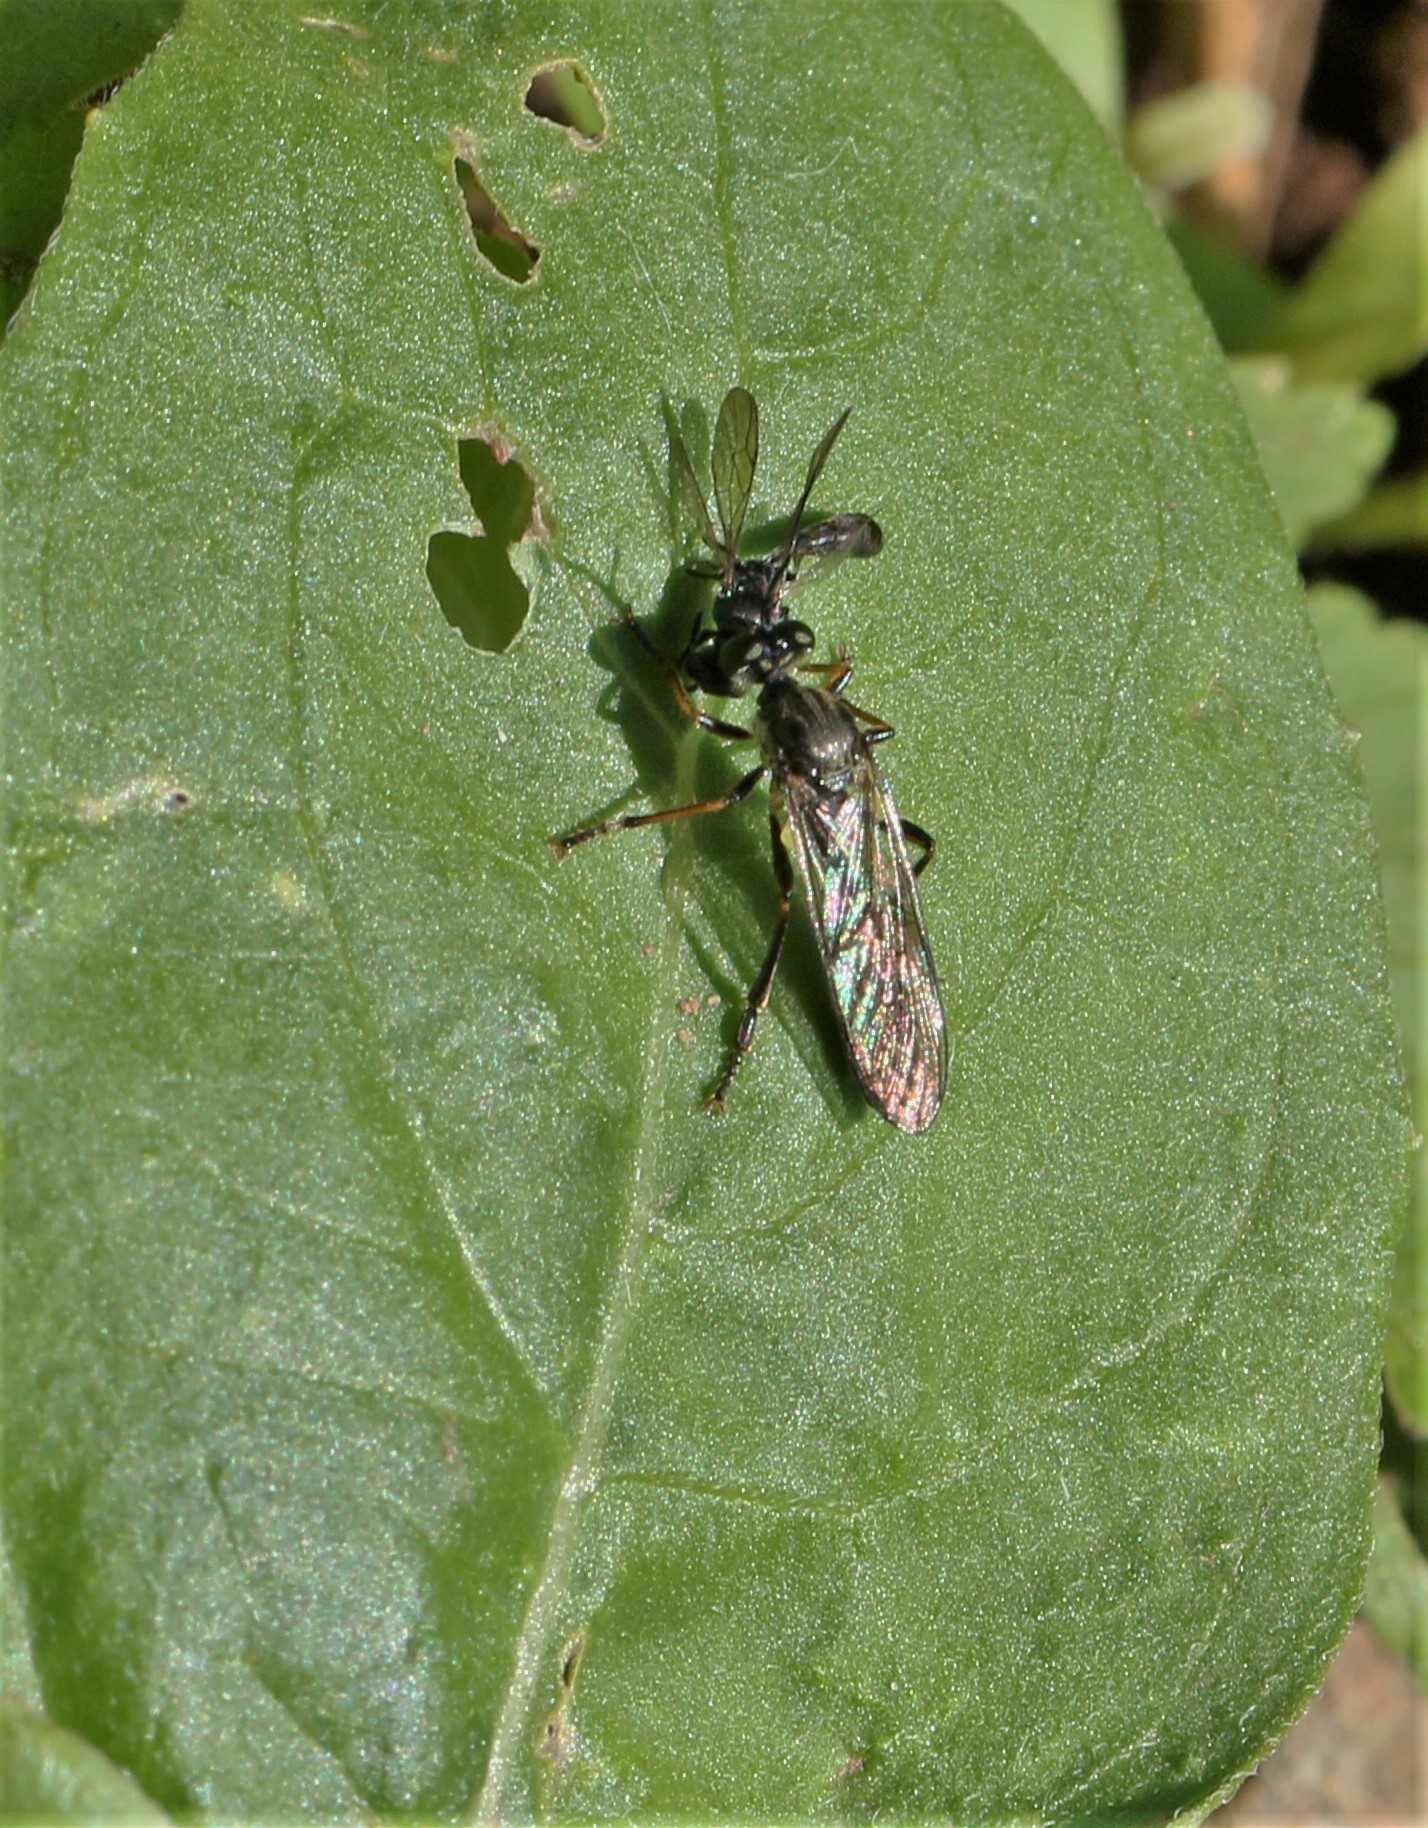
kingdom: Animalia
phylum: Arthropoda
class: Insecta
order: Diptera
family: Asilidae
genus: Dioctria
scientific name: Dioctria hyalipennis
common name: Stripe-legged robberfly
